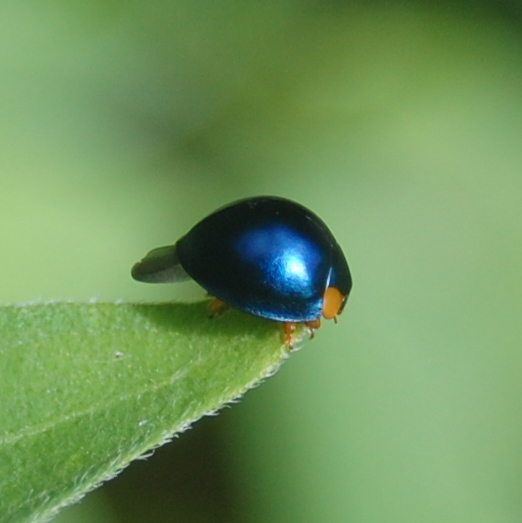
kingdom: Animalia
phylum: Arthropoda
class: Insecta
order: Coleoptera
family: Coccinellidae
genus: Curinus
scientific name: Curinus coeruleus
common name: Ladybird beetle
